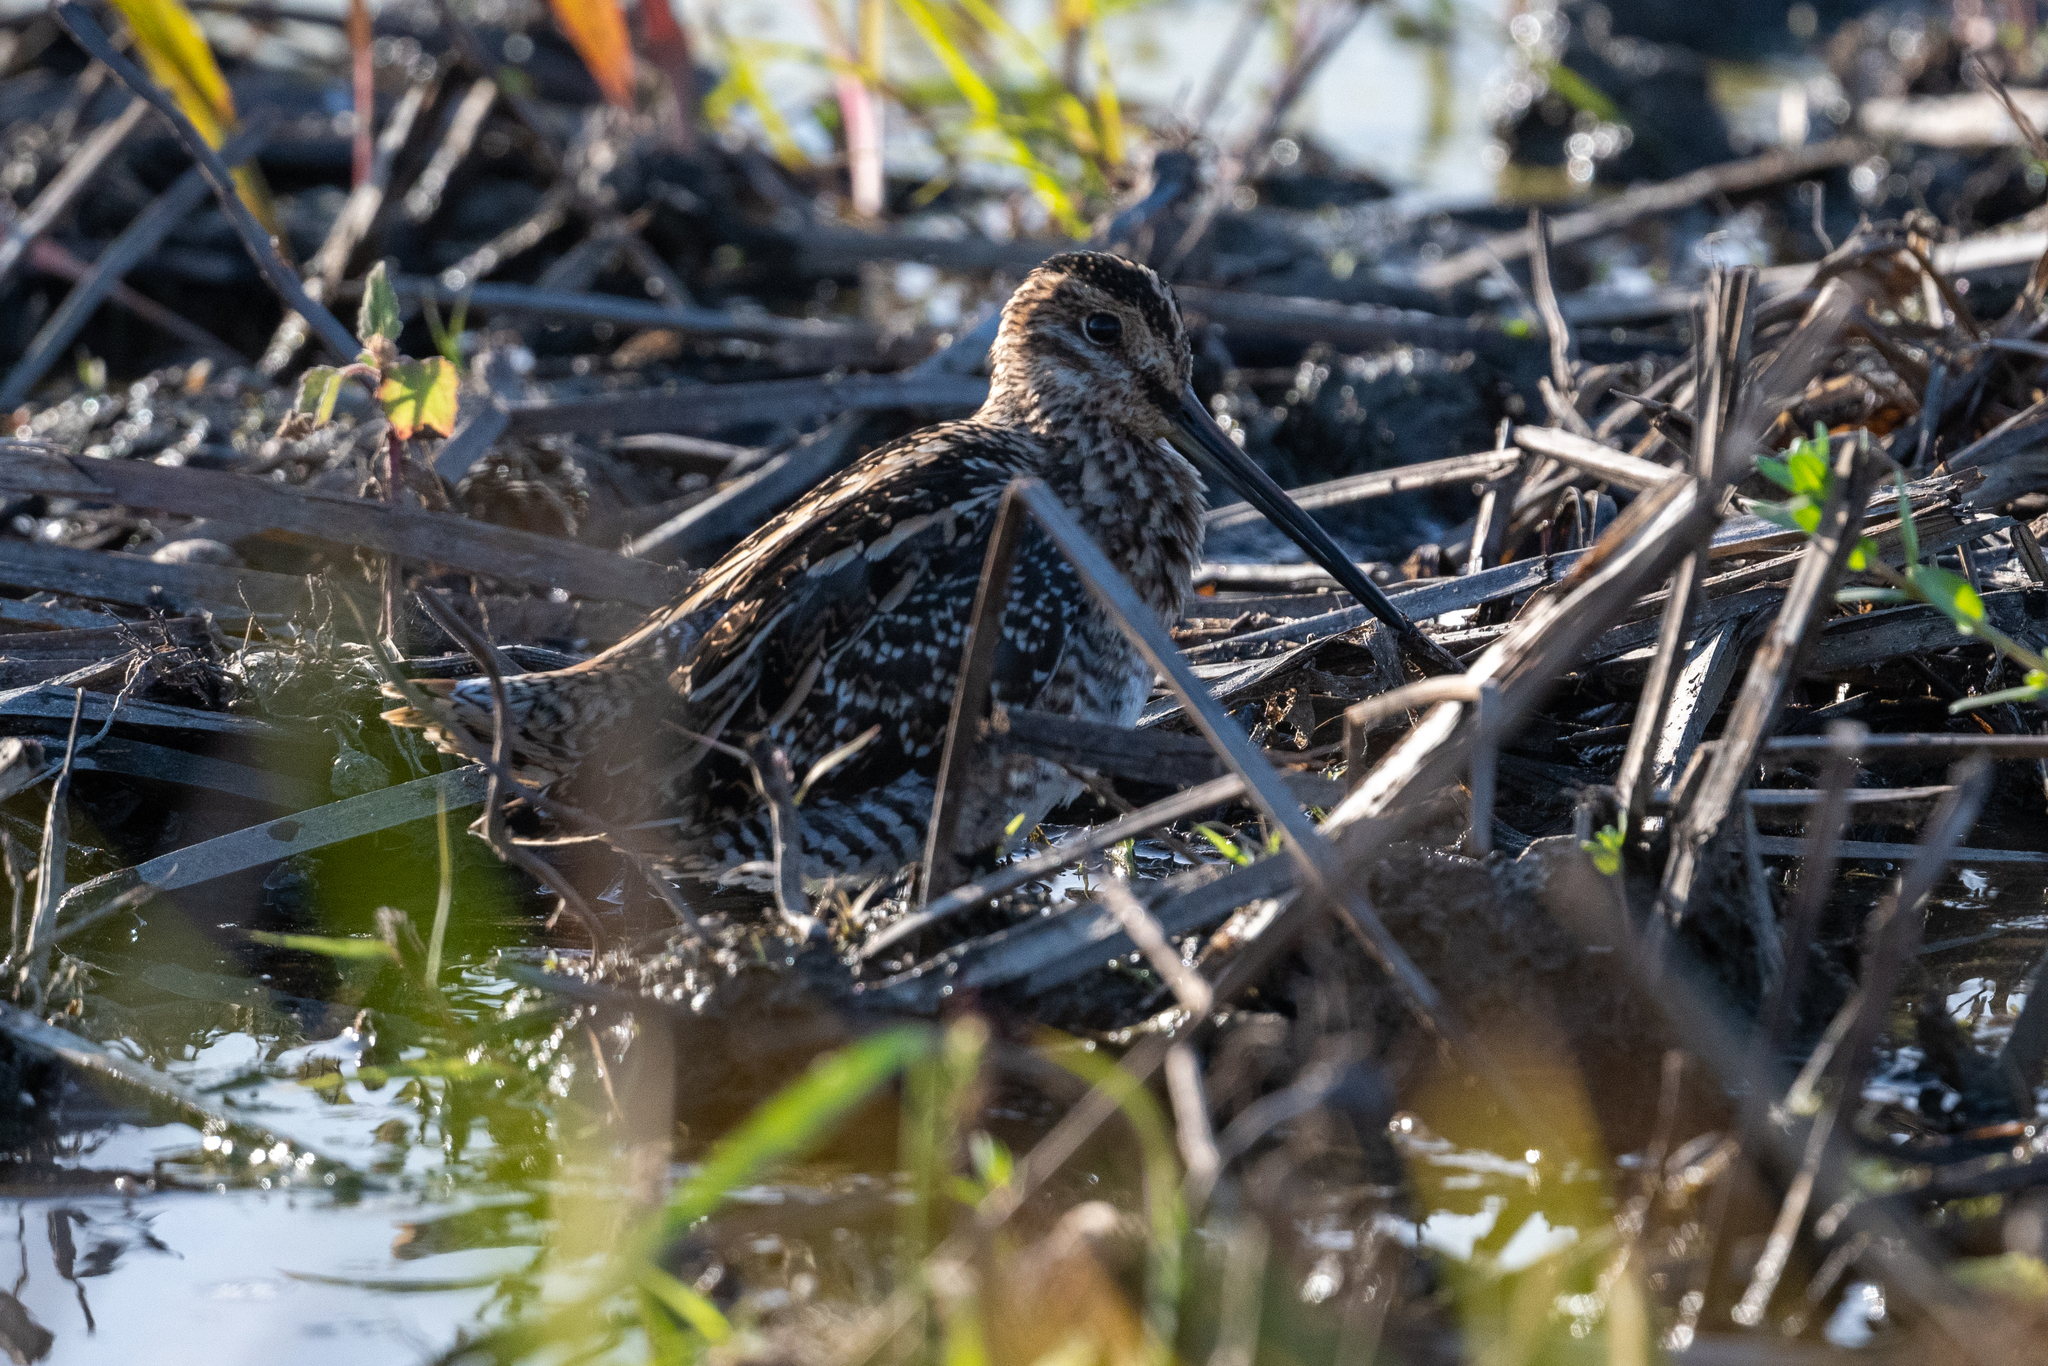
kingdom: Animalia
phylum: Chordata
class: Aves
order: Charadriiformes
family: Scolopacidae
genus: Gallinago
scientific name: Gallinago delicata
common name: Wilson's snipe
